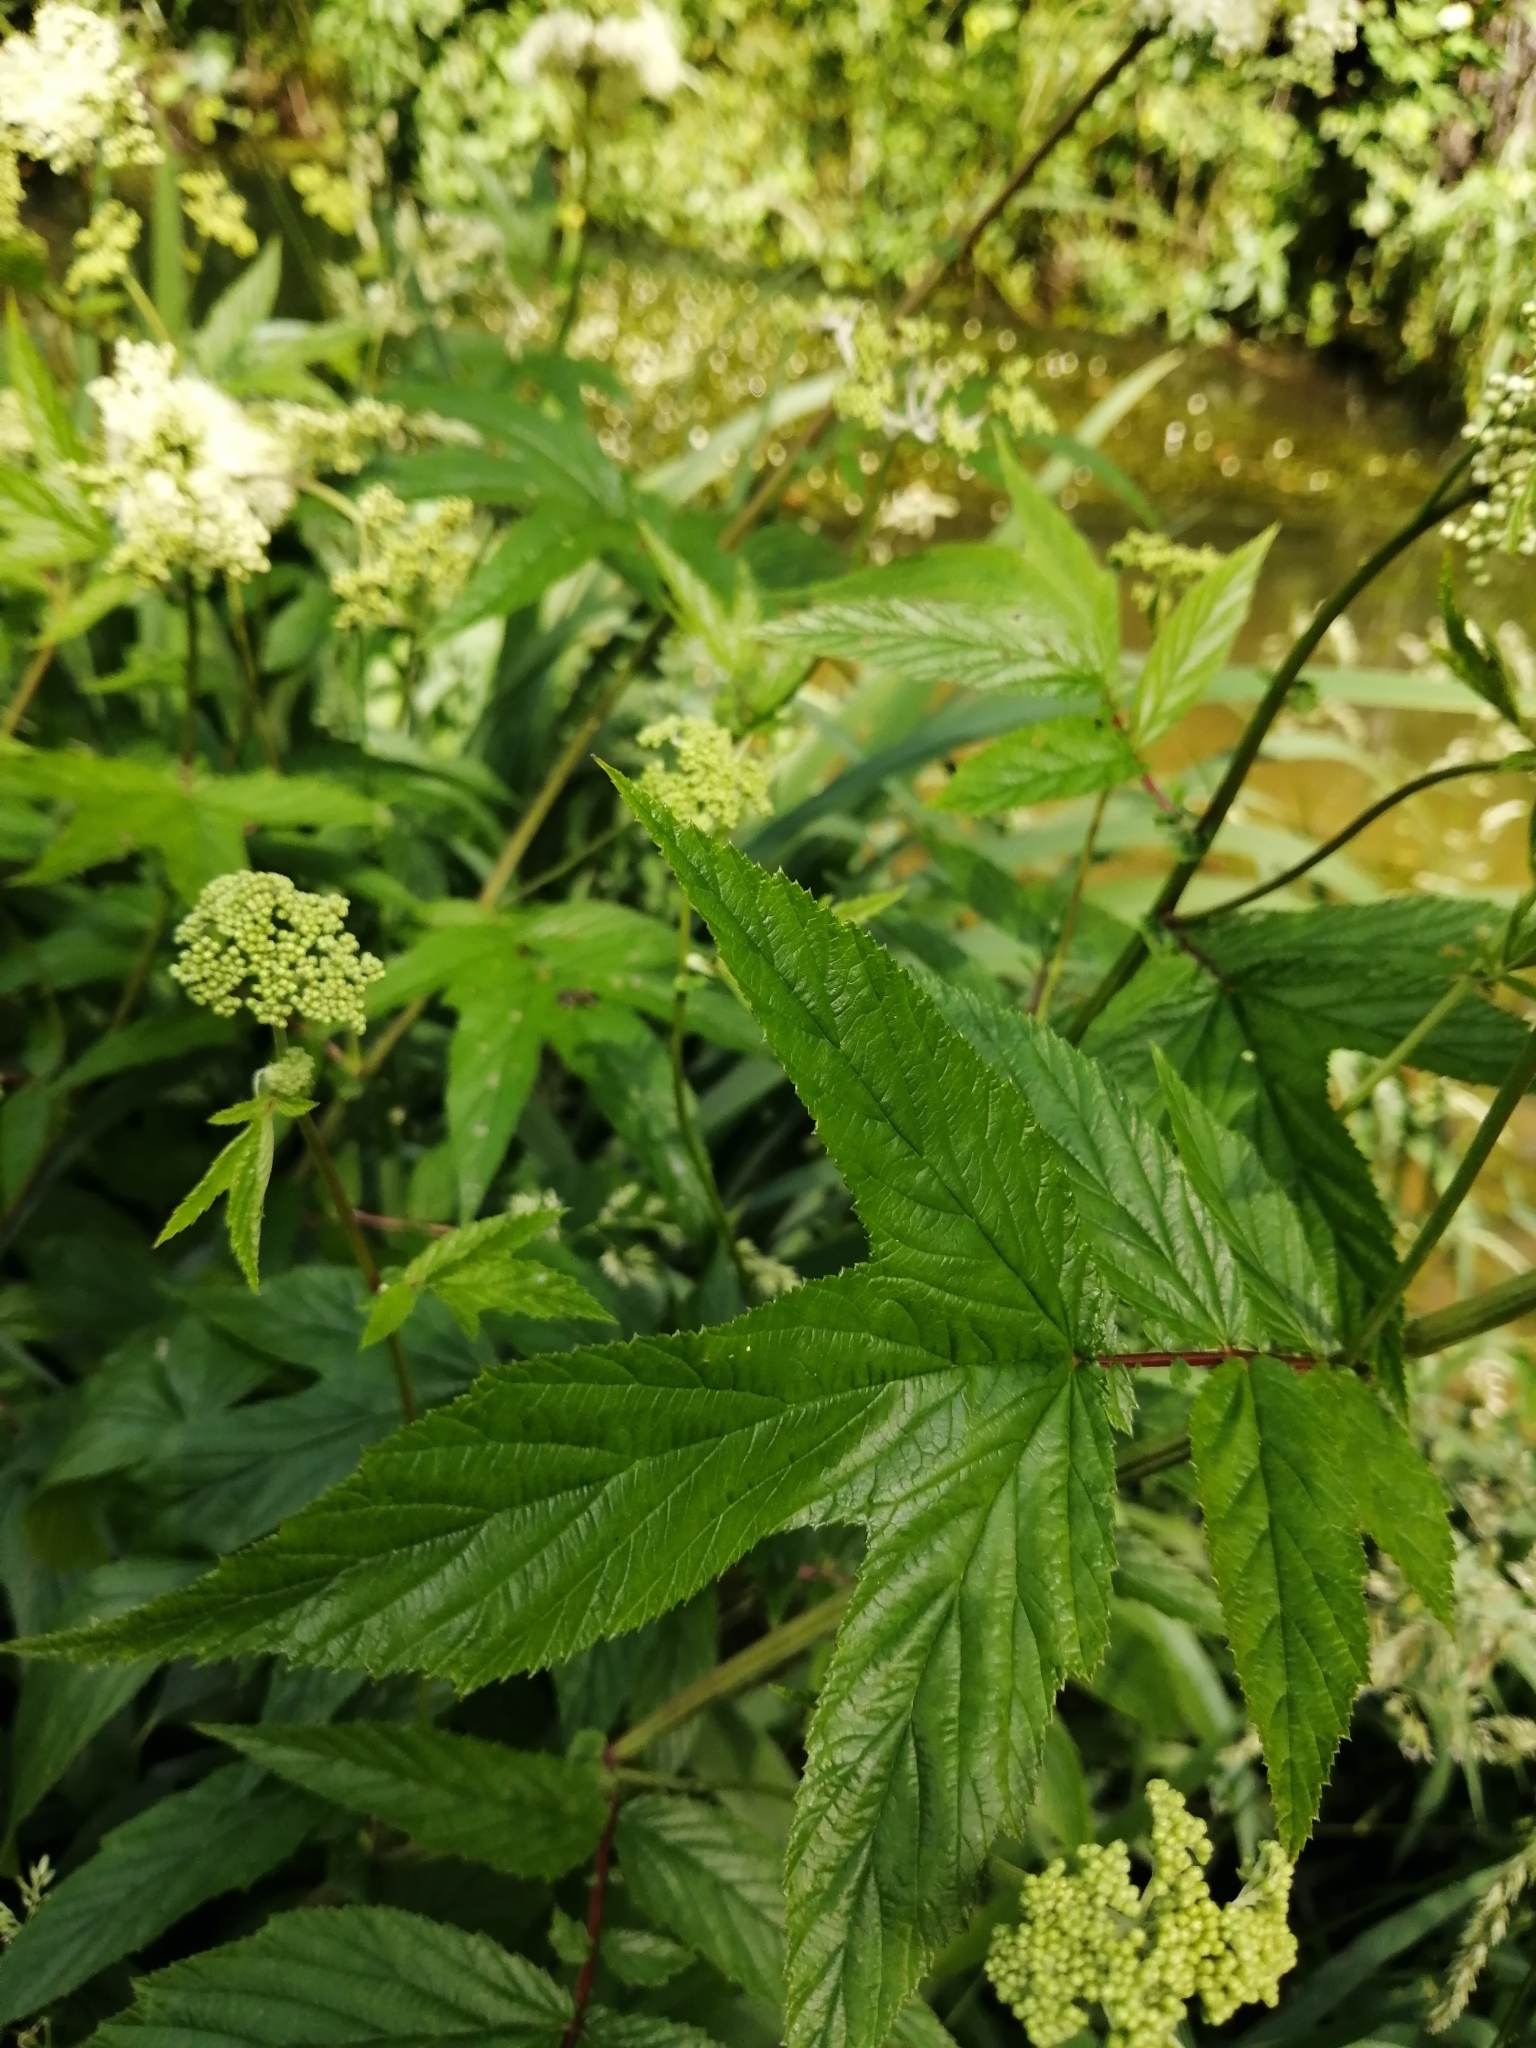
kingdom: Plantae
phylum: Tracheophyta
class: Magnoliopsida
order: Rosales
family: Rosaceae
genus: Filipendula
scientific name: Filipendula ulmaria
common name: Meadowsweet
